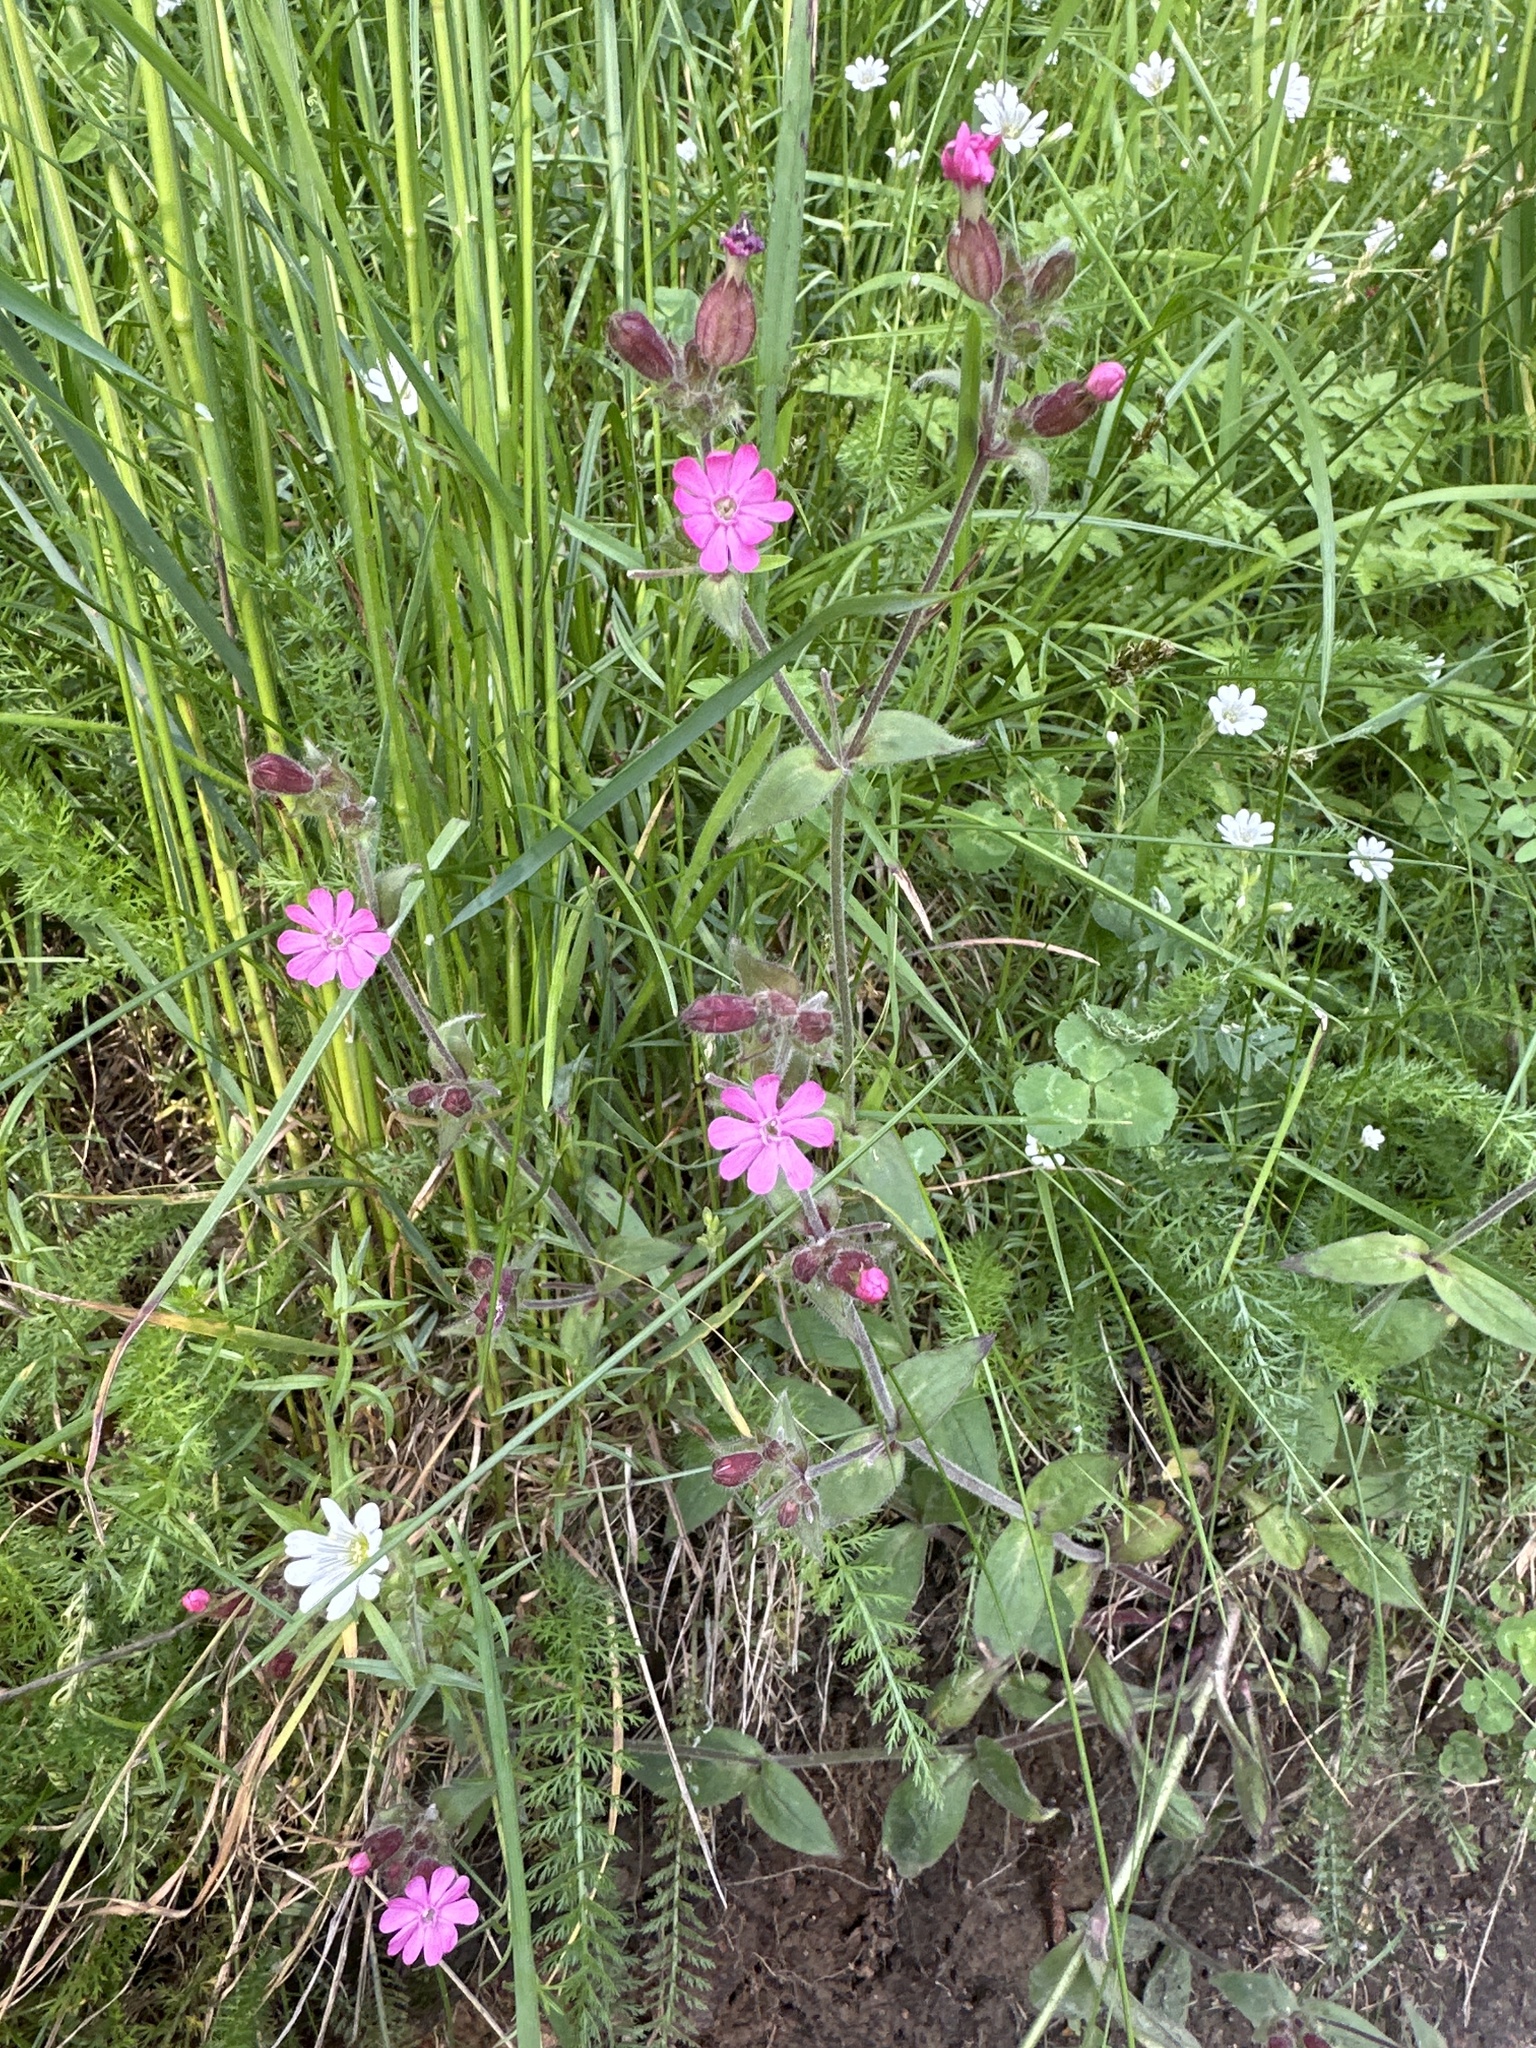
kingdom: Plantae
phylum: Tracheophyta
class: Magnoliopsida
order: Caryophyllales
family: Caryophyllaceae
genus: Silene
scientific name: Silene dioica
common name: Red campion
